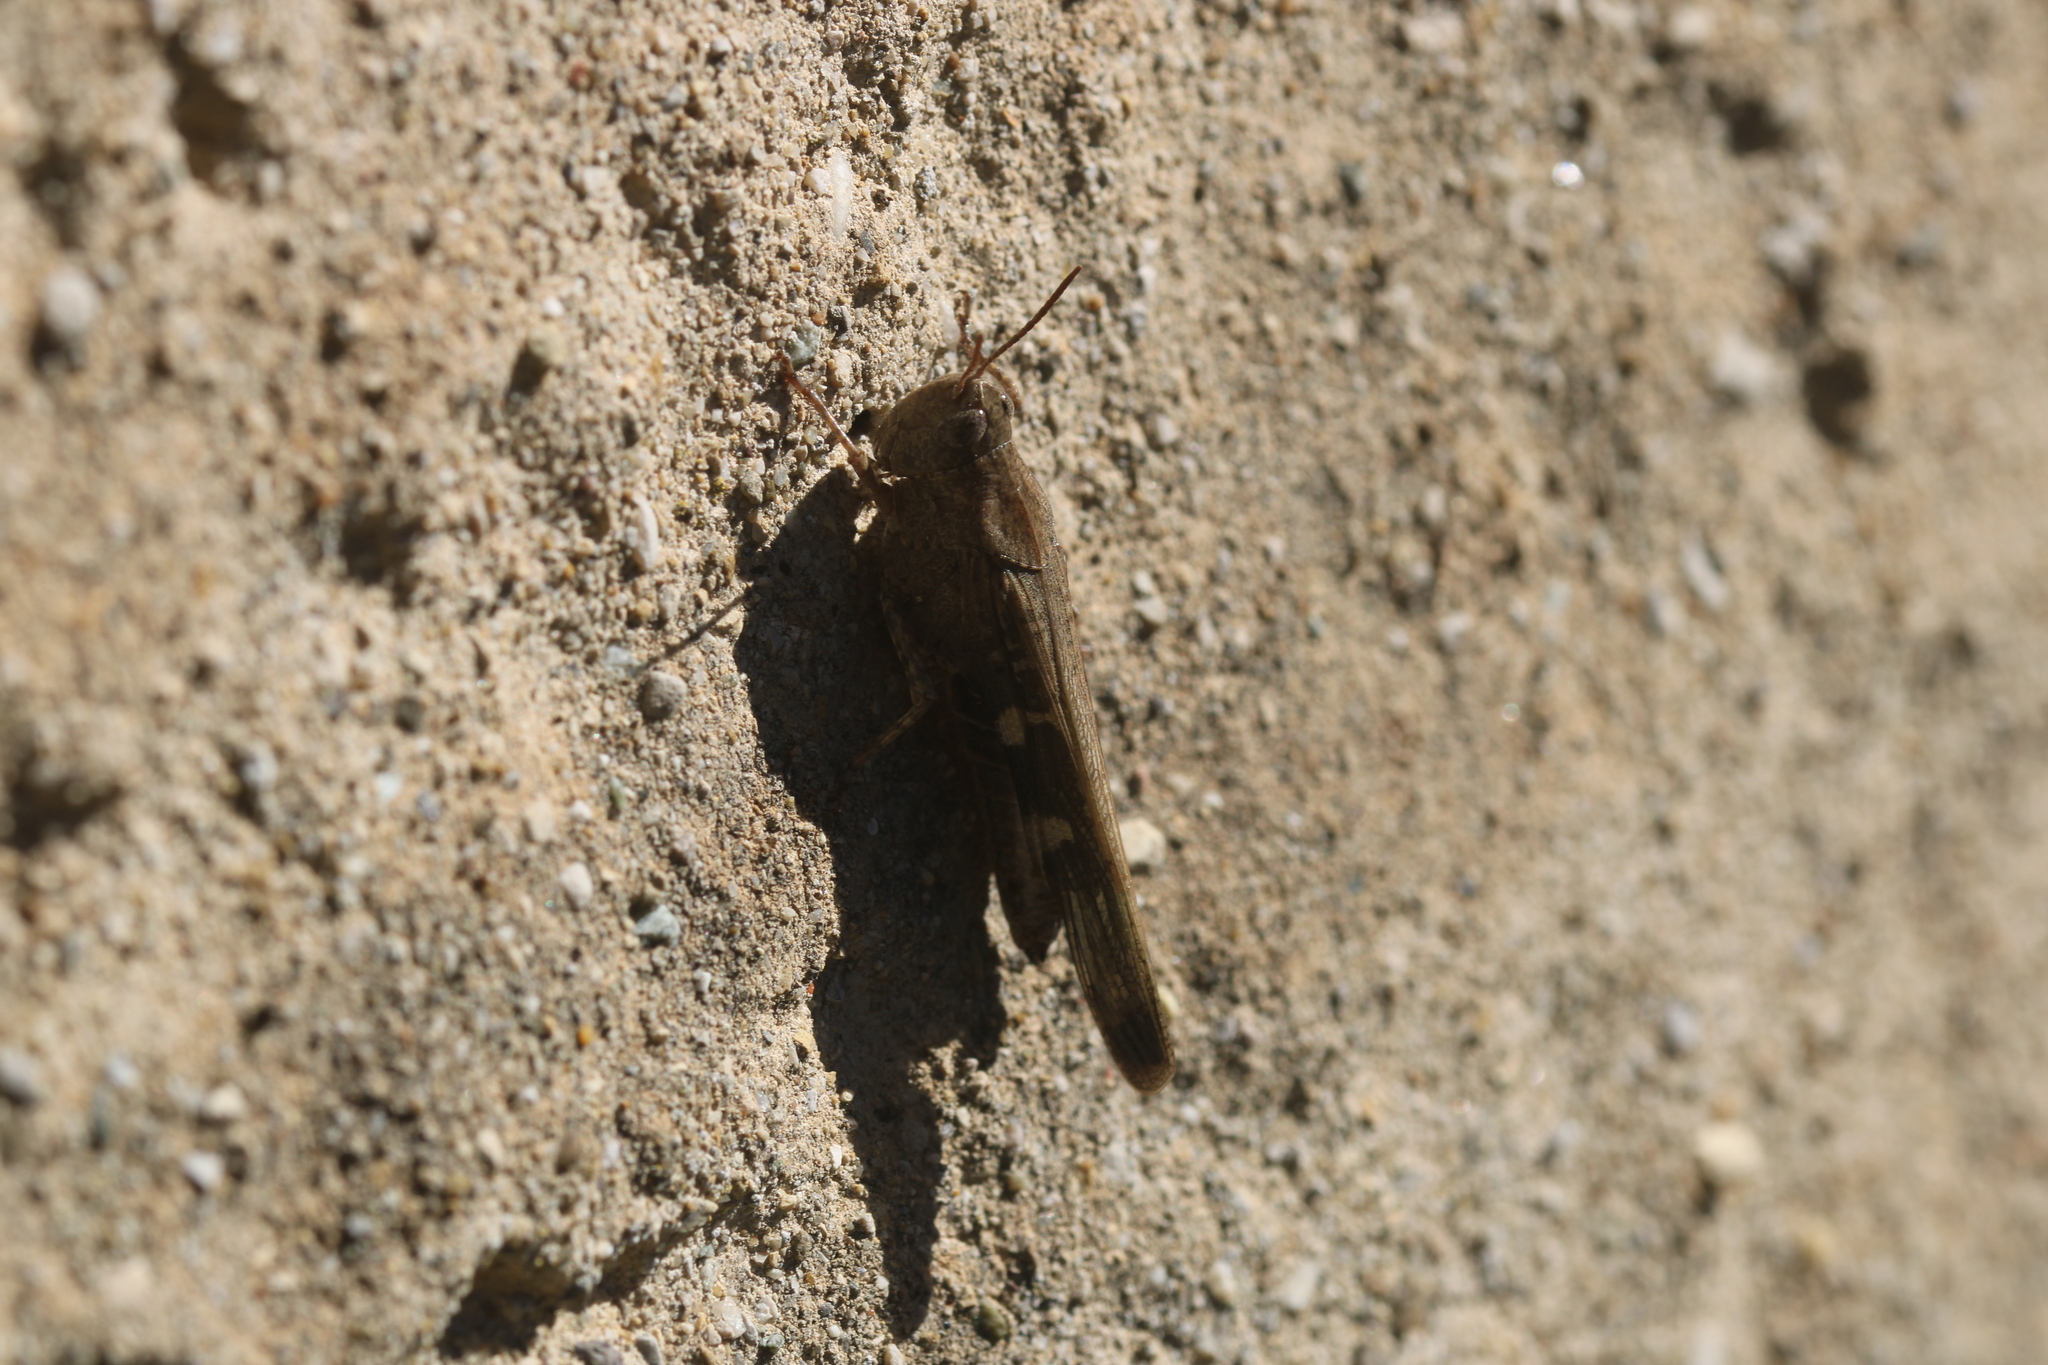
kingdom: Animalia
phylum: Arthropoda
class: Insecta
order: Orthoptera
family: Acrididae
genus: Aiolopus
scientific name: Aiolopus strepens
